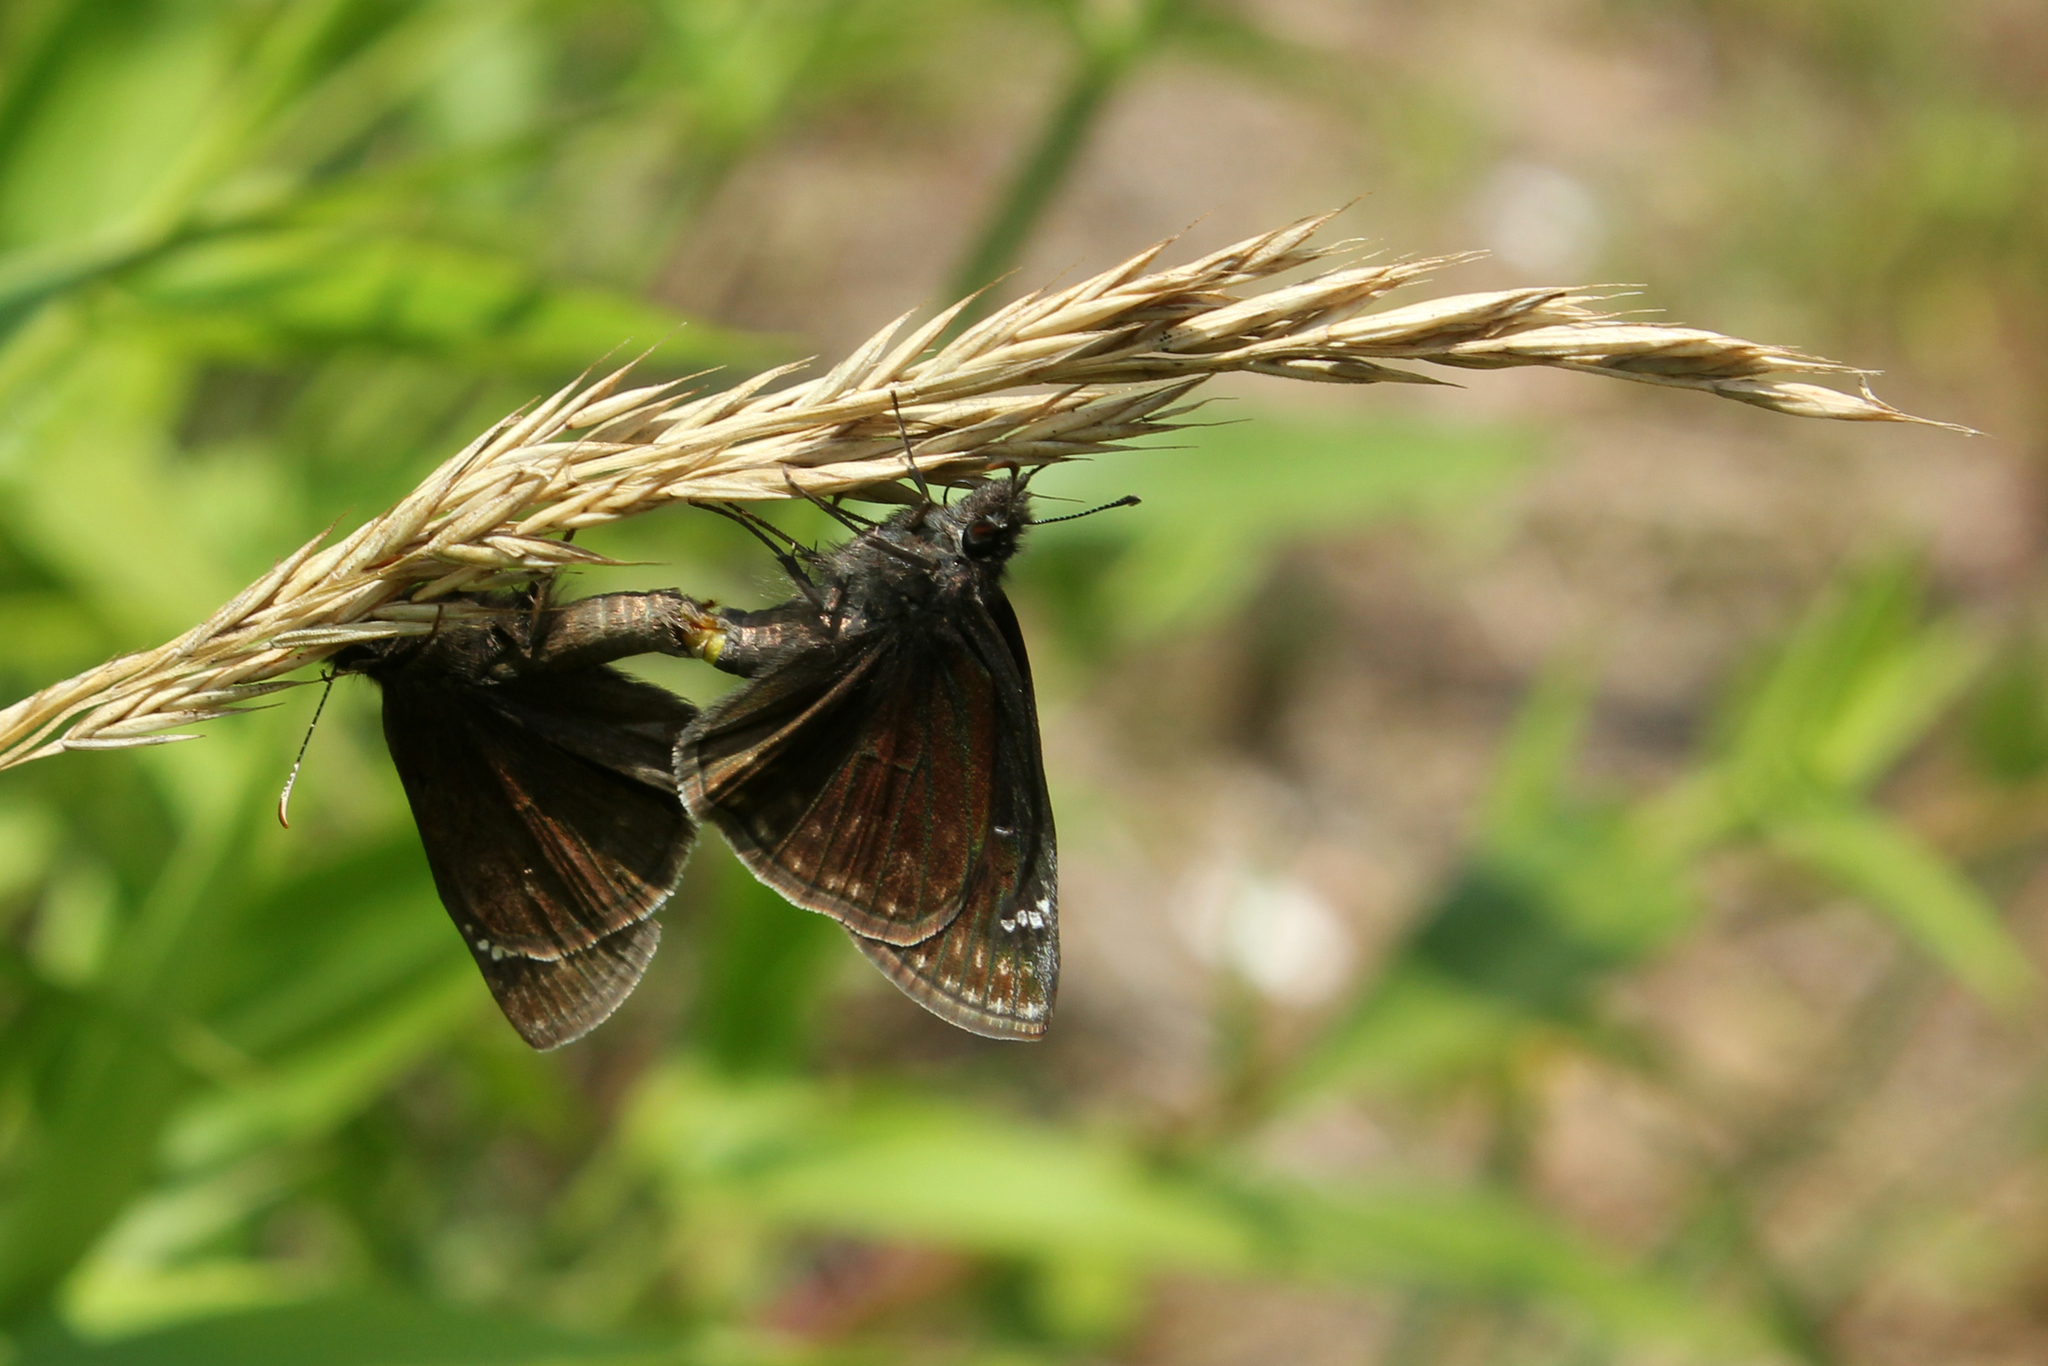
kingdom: Animalia
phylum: Arthropoda
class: Insecta
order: Lepidoptera
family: Hesperiidae
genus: Erynnis
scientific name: Erynnis baptisiae
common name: Wild indigo duskywing
